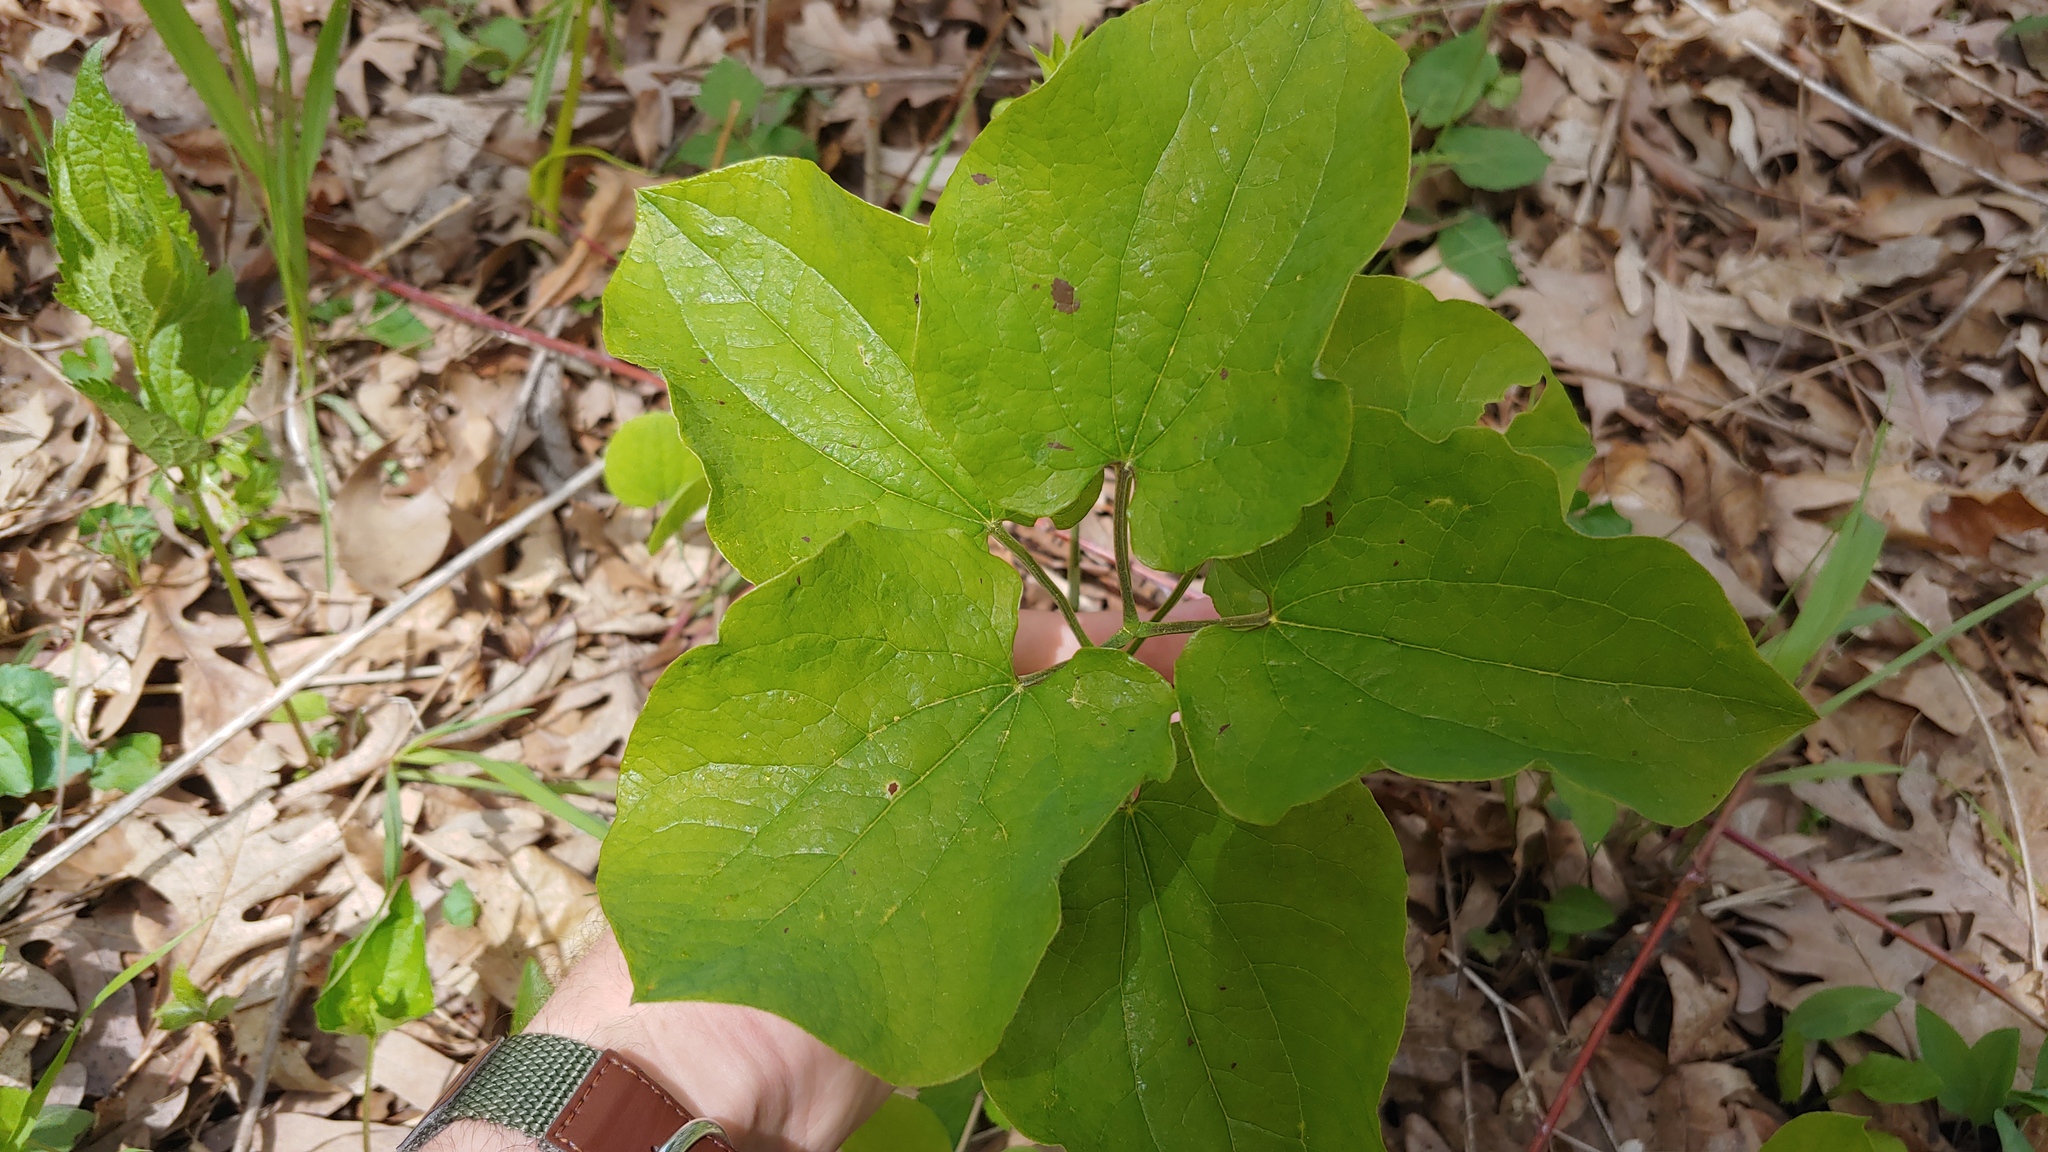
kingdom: Plantae
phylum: Tracheophyta
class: Liliopsida
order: Liliales
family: Smilacaceae
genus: Smilax
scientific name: Smilax ecirrhata
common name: Upright carrionflower
